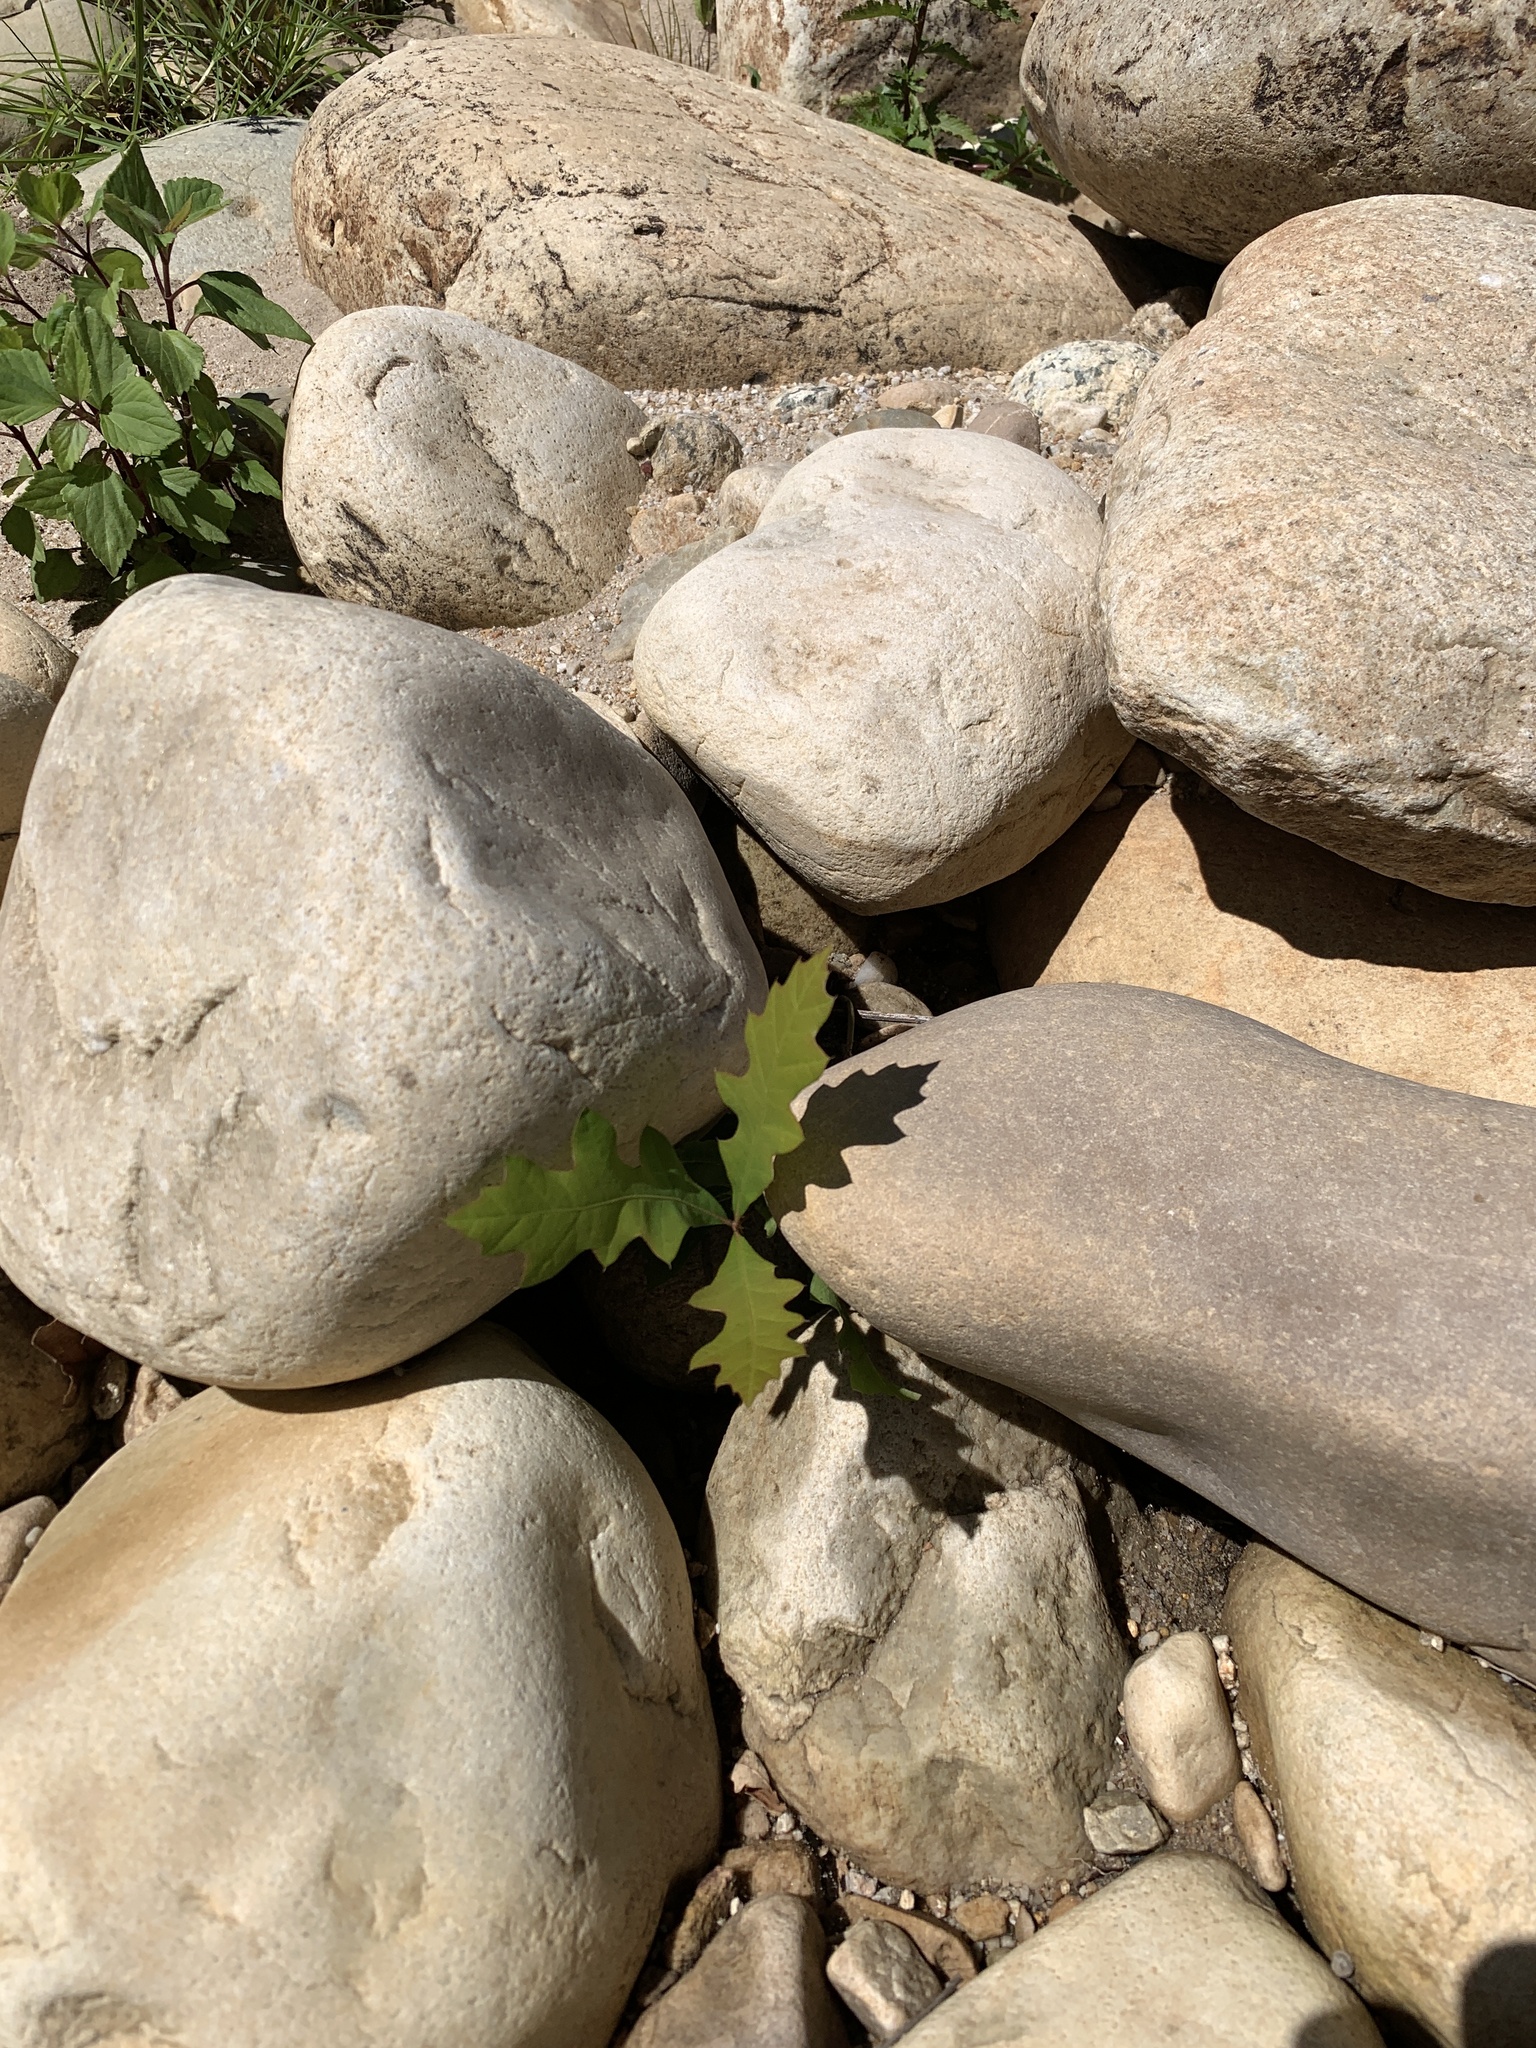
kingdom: Plantae
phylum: Tracheophyta
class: Magnoliopsida
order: Fagales
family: Fagaceae
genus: Quercus
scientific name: Quercus palustris
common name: Pin oak
